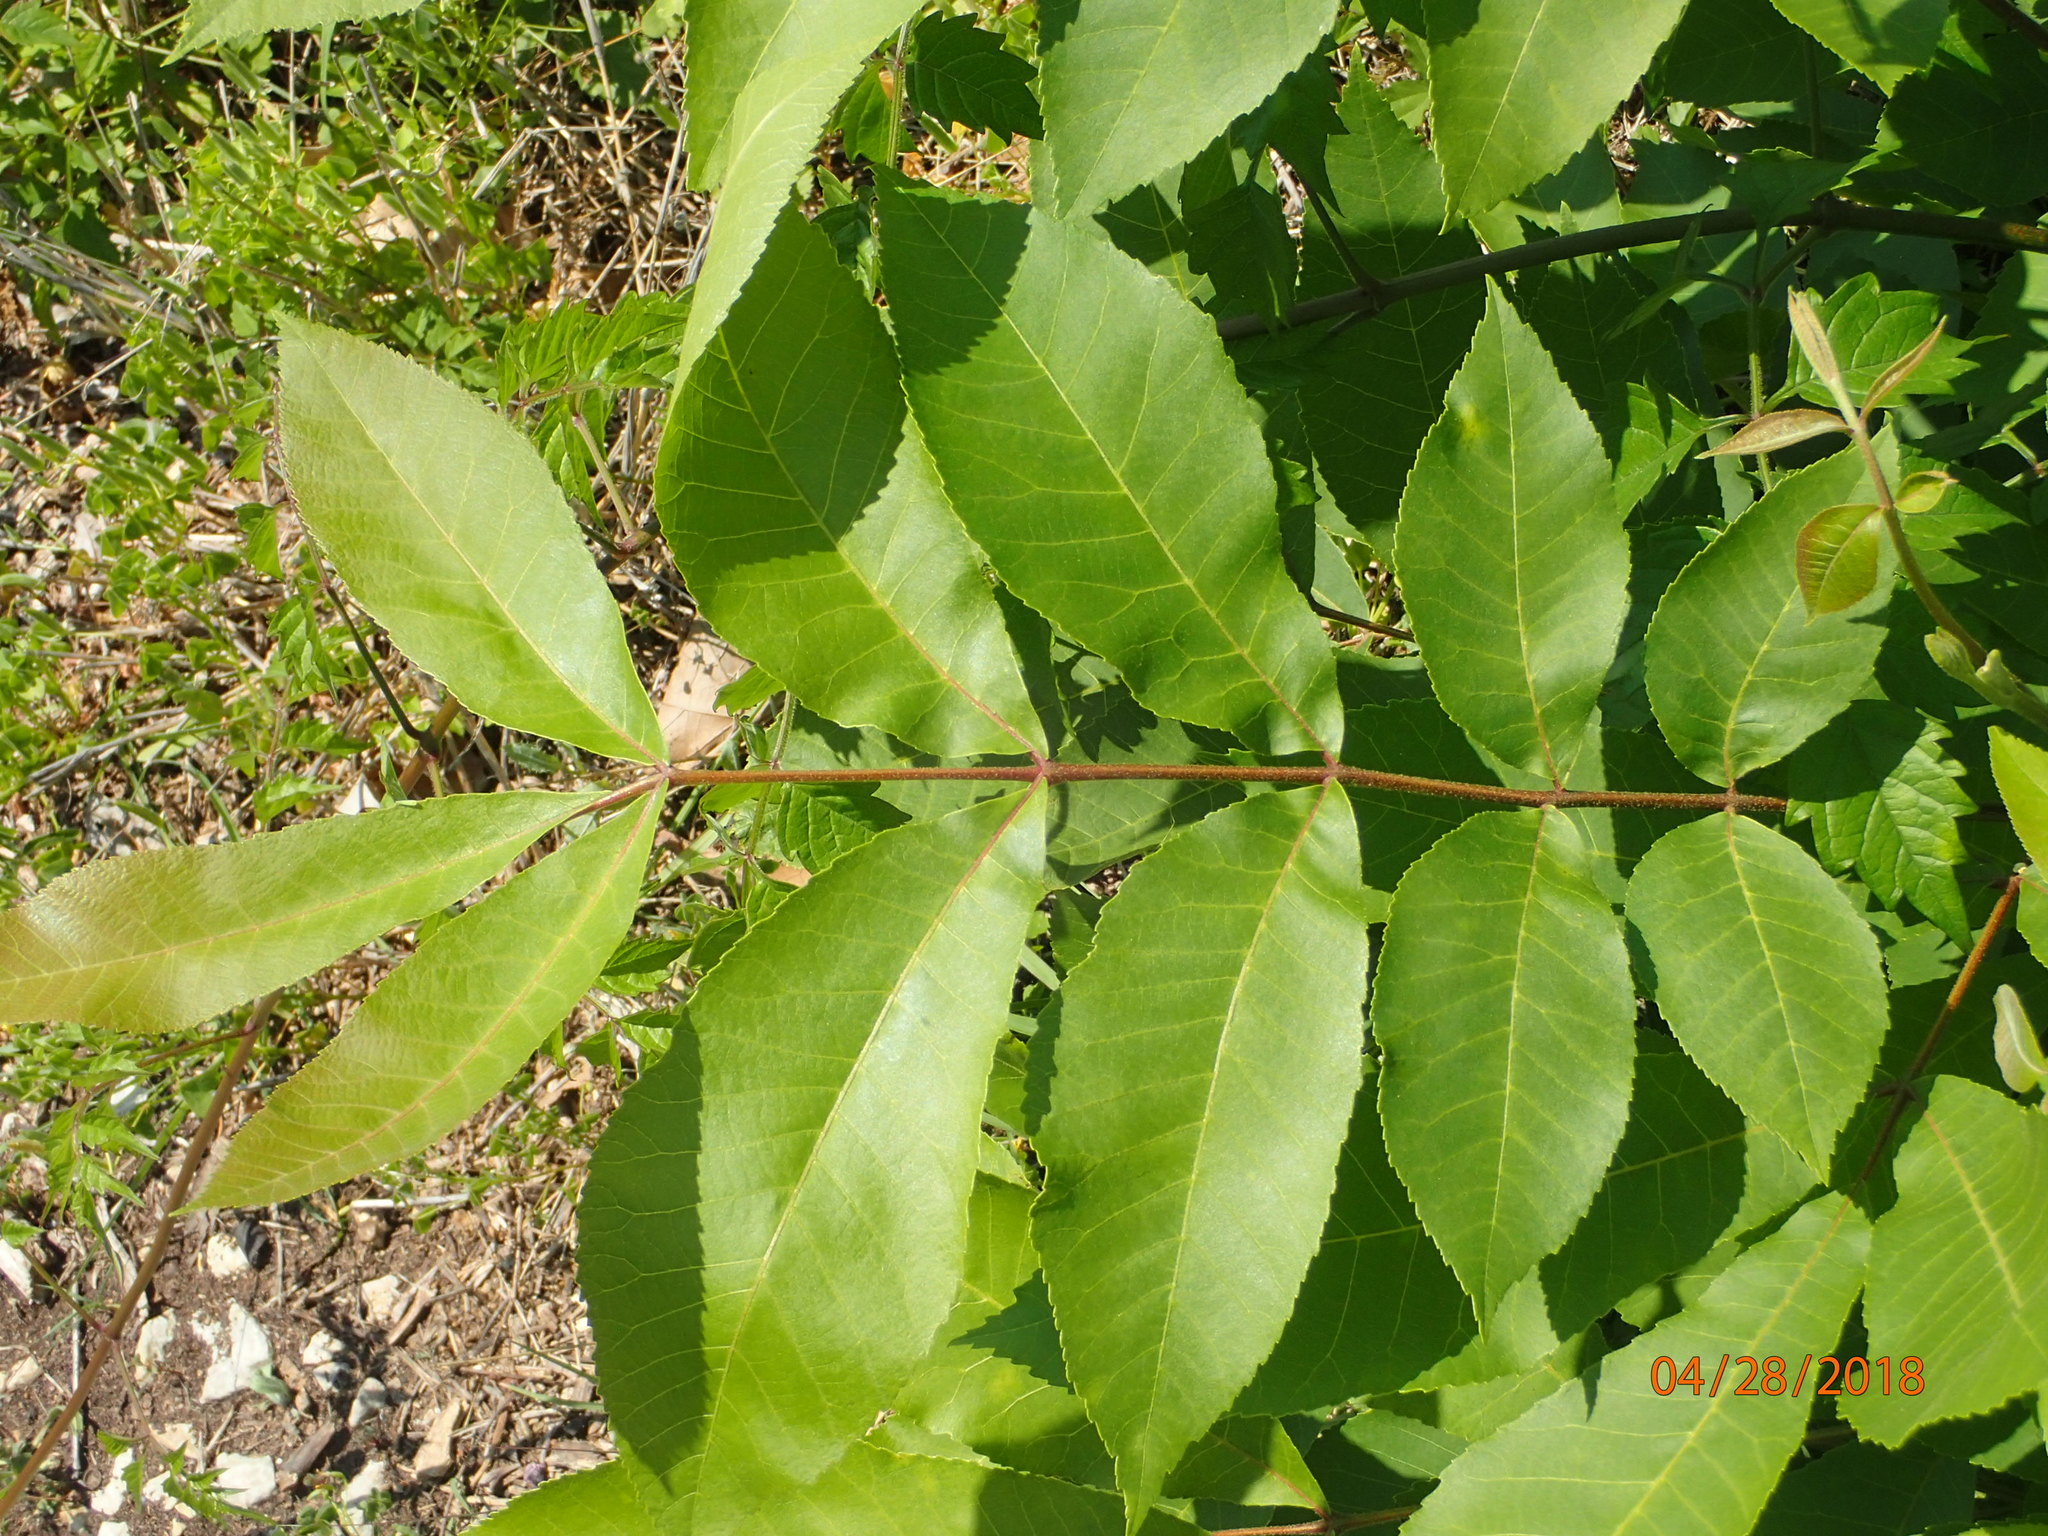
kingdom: Plantae
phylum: Tracheophyta
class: Magnoliopsida
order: Fagales
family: Juglandaceae
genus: Carya
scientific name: Carya illinoinensis
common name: Pecan
